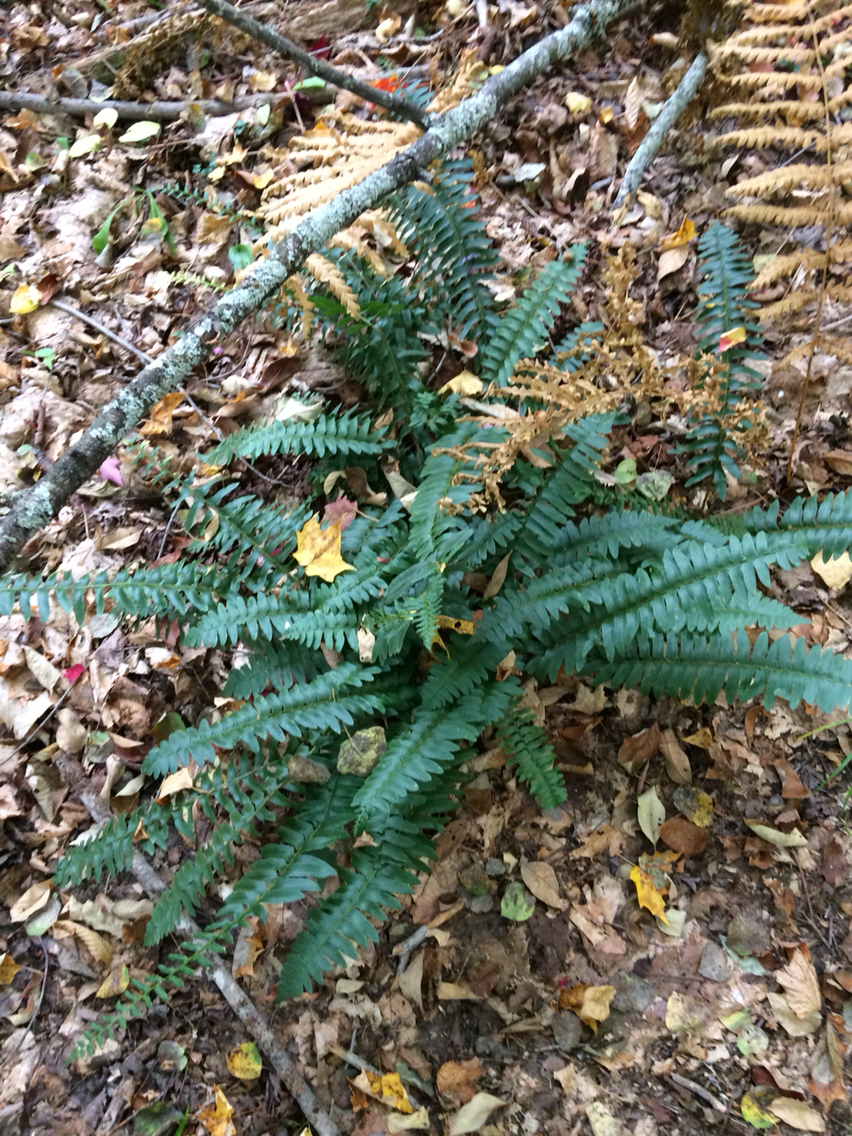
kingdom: Plantae
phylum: Tracheophyta
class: Polypodiopsida
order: Polypodiales
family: Dryopteridaceae
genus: Polystichum
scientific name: Polystichum acrostichoides
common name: Christmas fern
